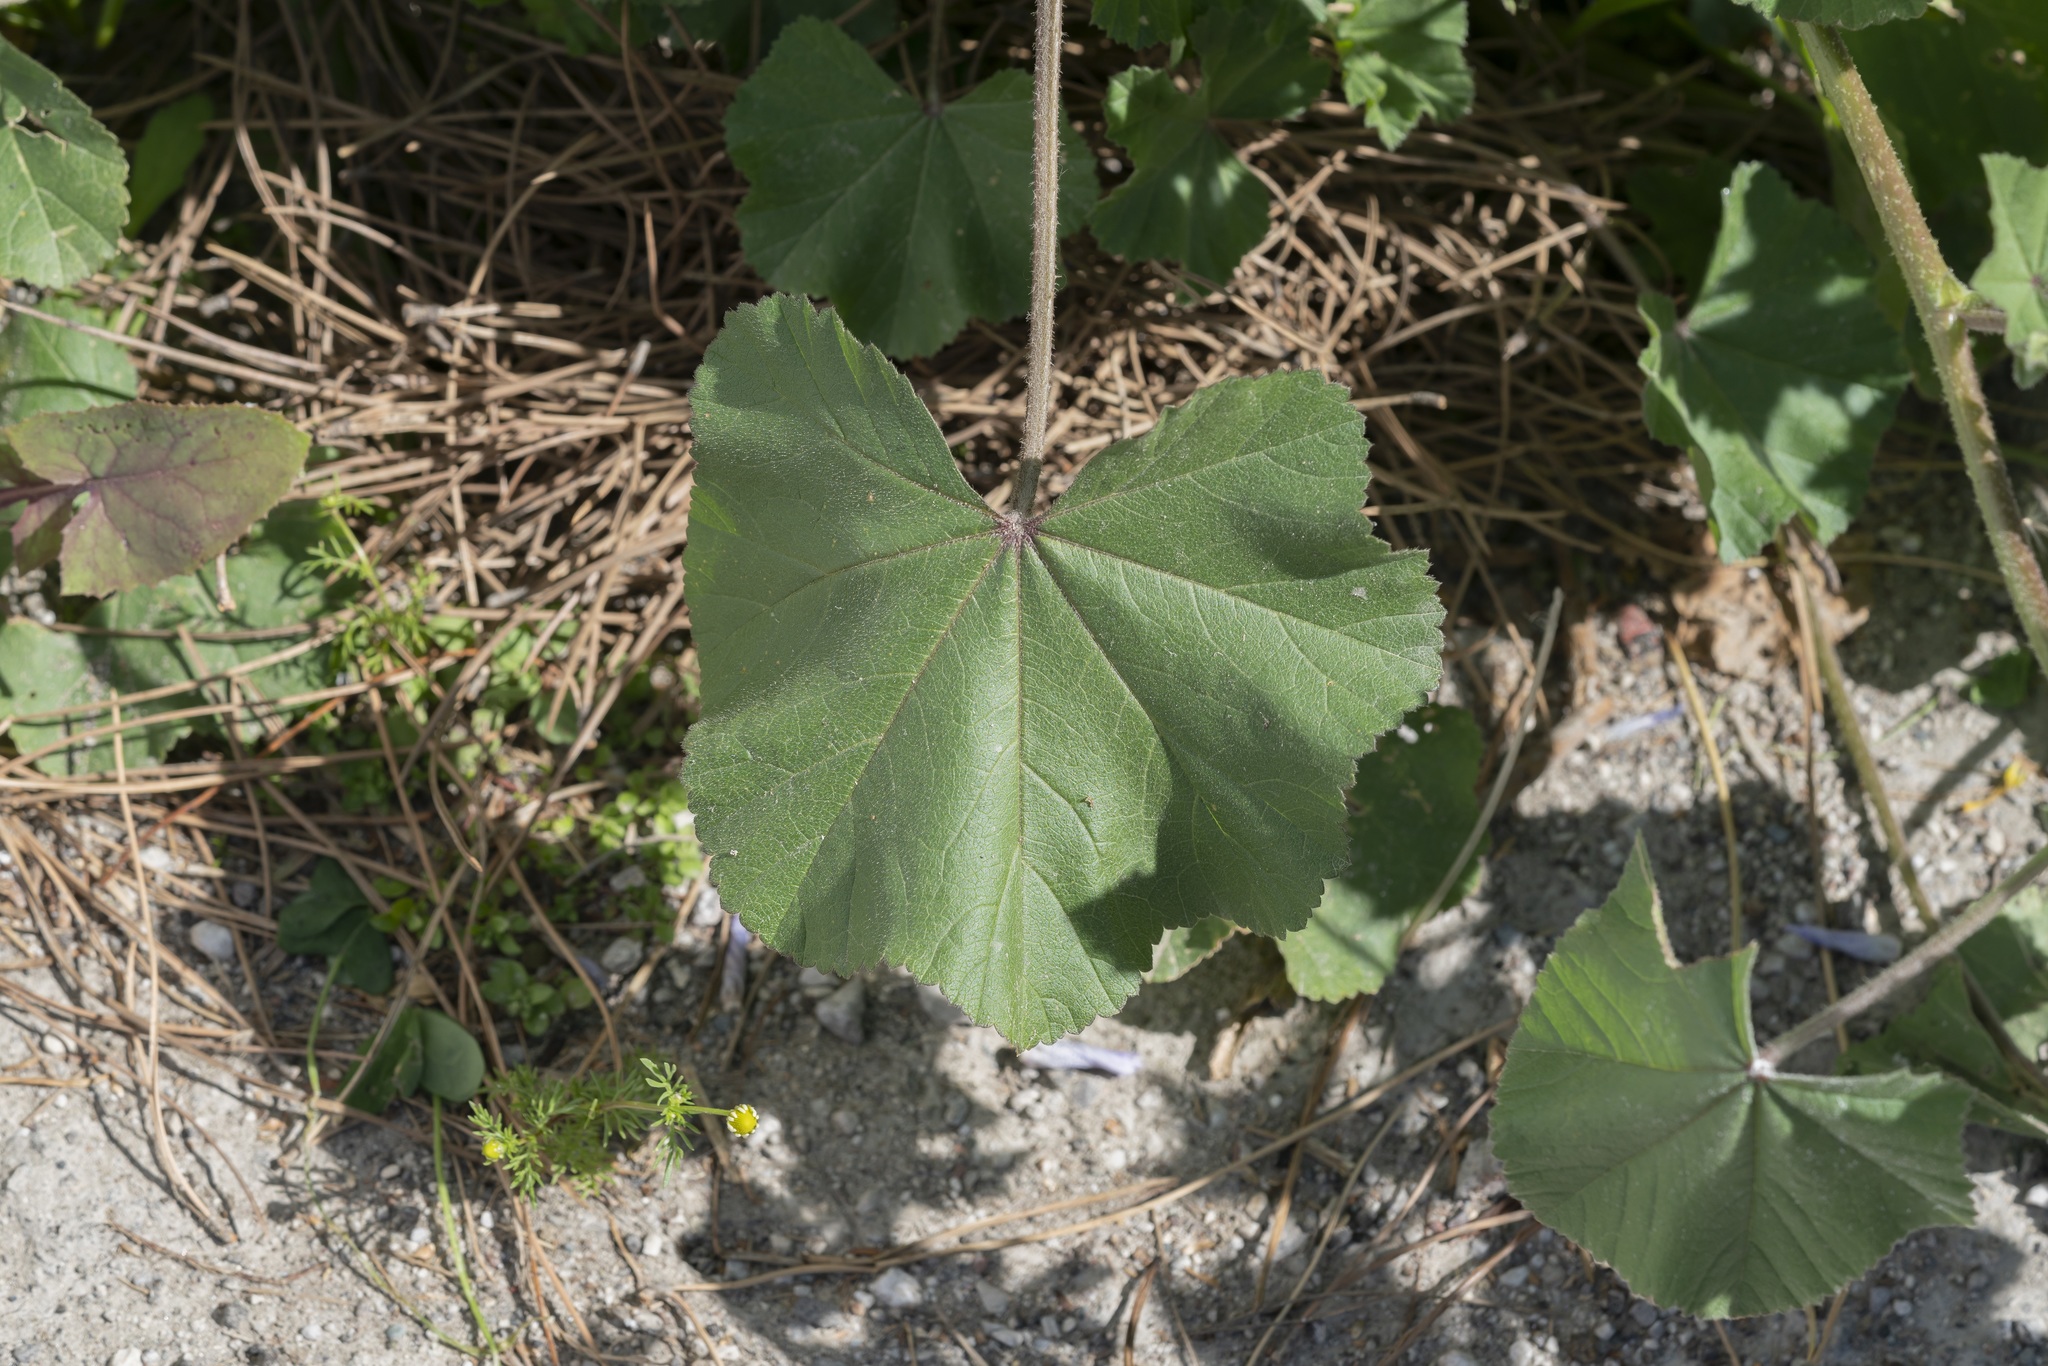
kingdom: Plantae
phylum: Tracheophyta
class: Magnoliopsida
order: Malvales
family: Malvaceae
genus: Malva
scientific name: Malva multiflora
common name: Cheeseweed
